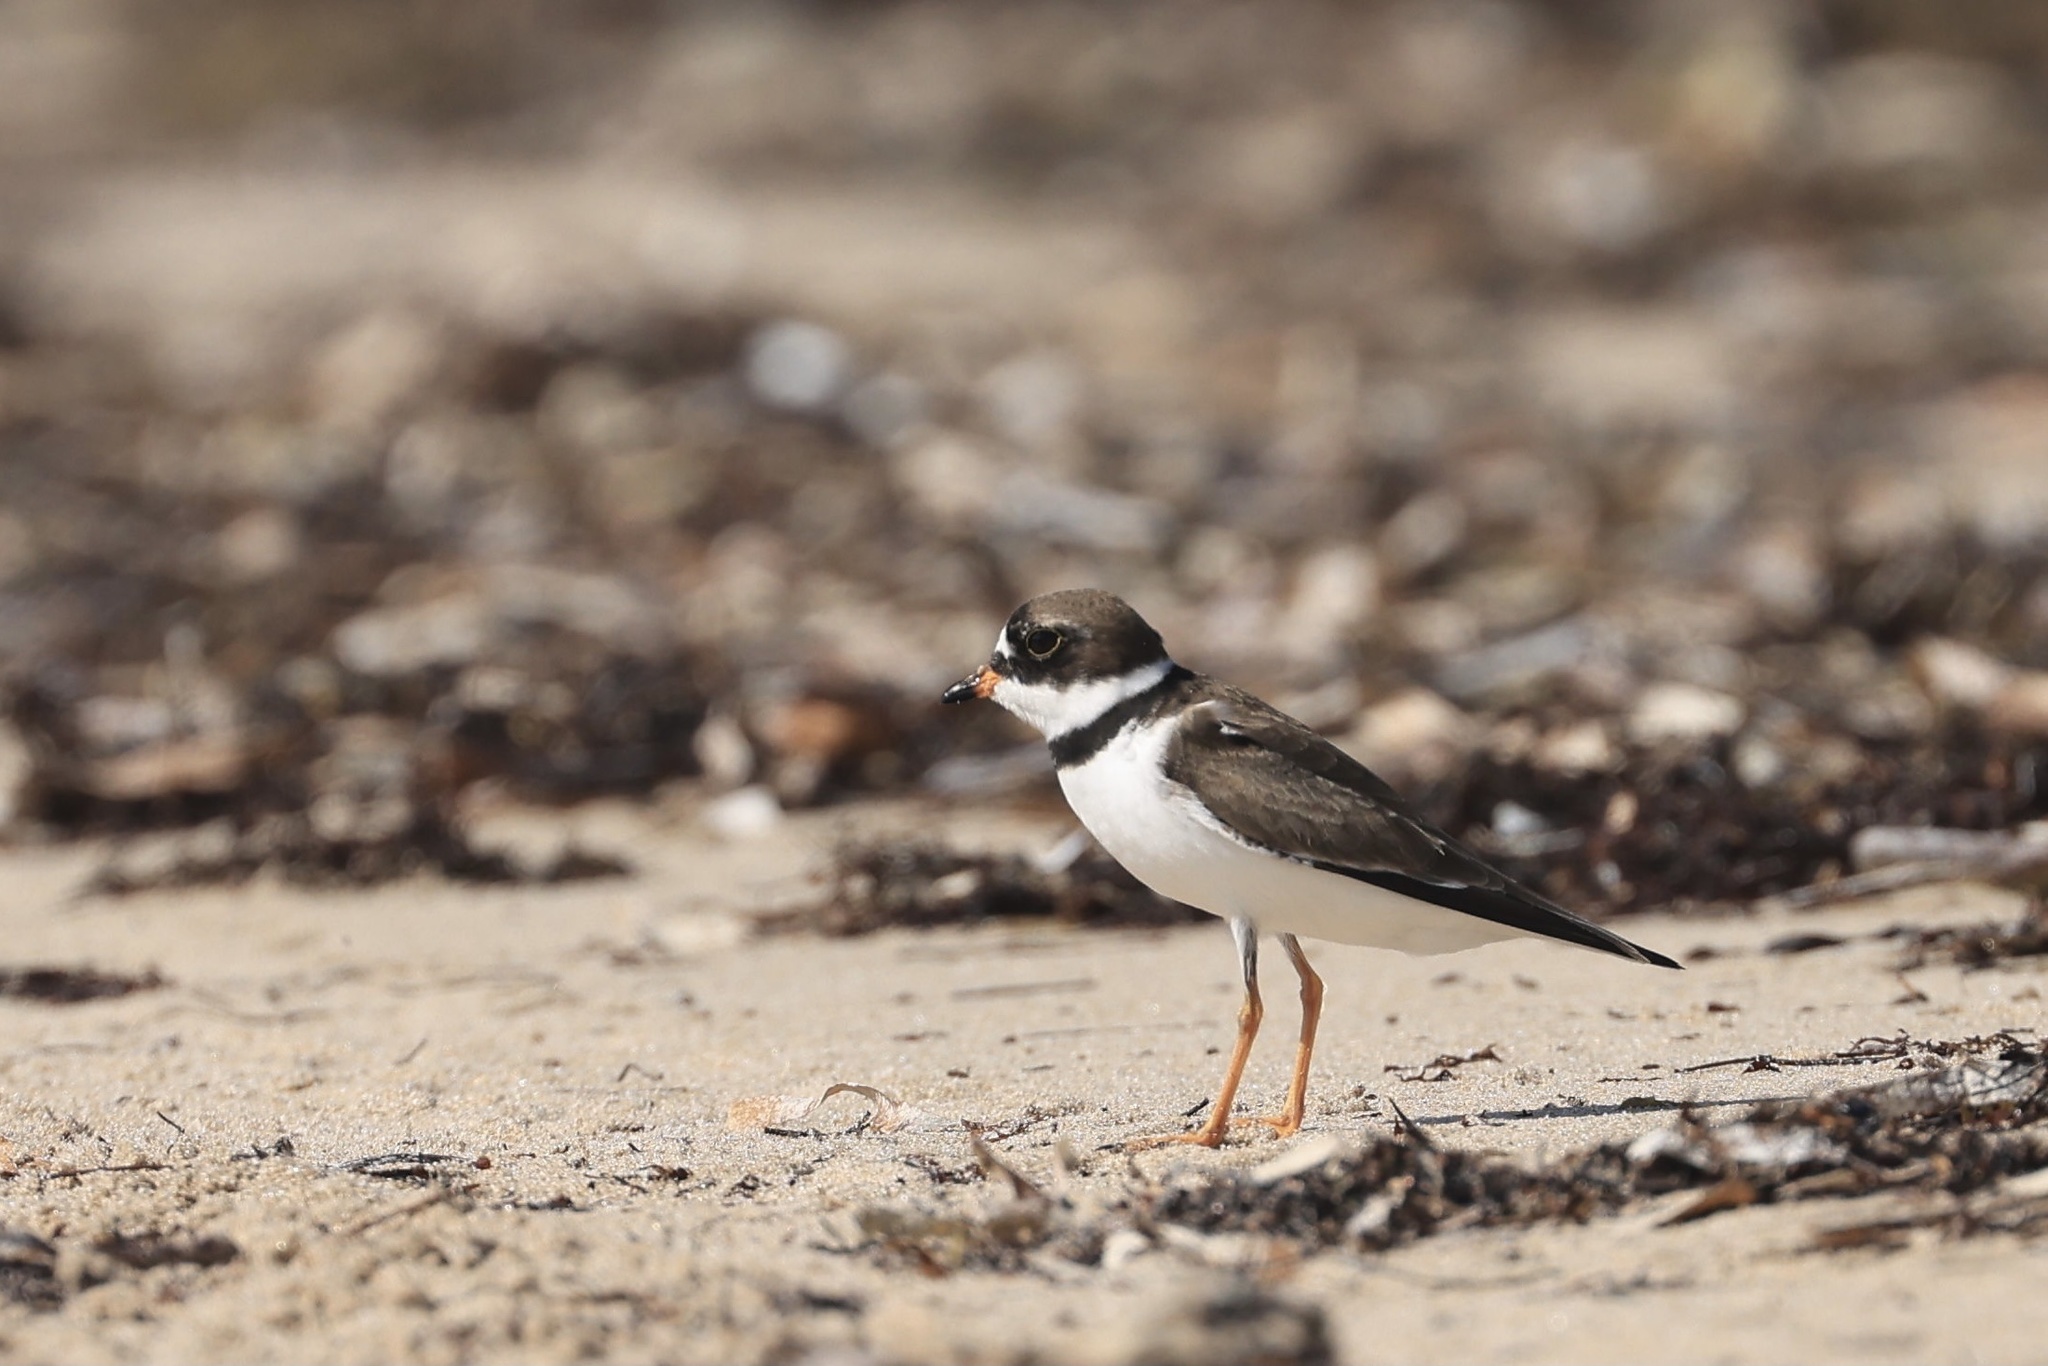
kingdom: Animalia
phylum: Chordata
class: Aves
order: Charadriiformes
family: Charadriidae
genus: Charadrius
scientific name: Charadrius semipalmatus
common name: Semipalmated plover
